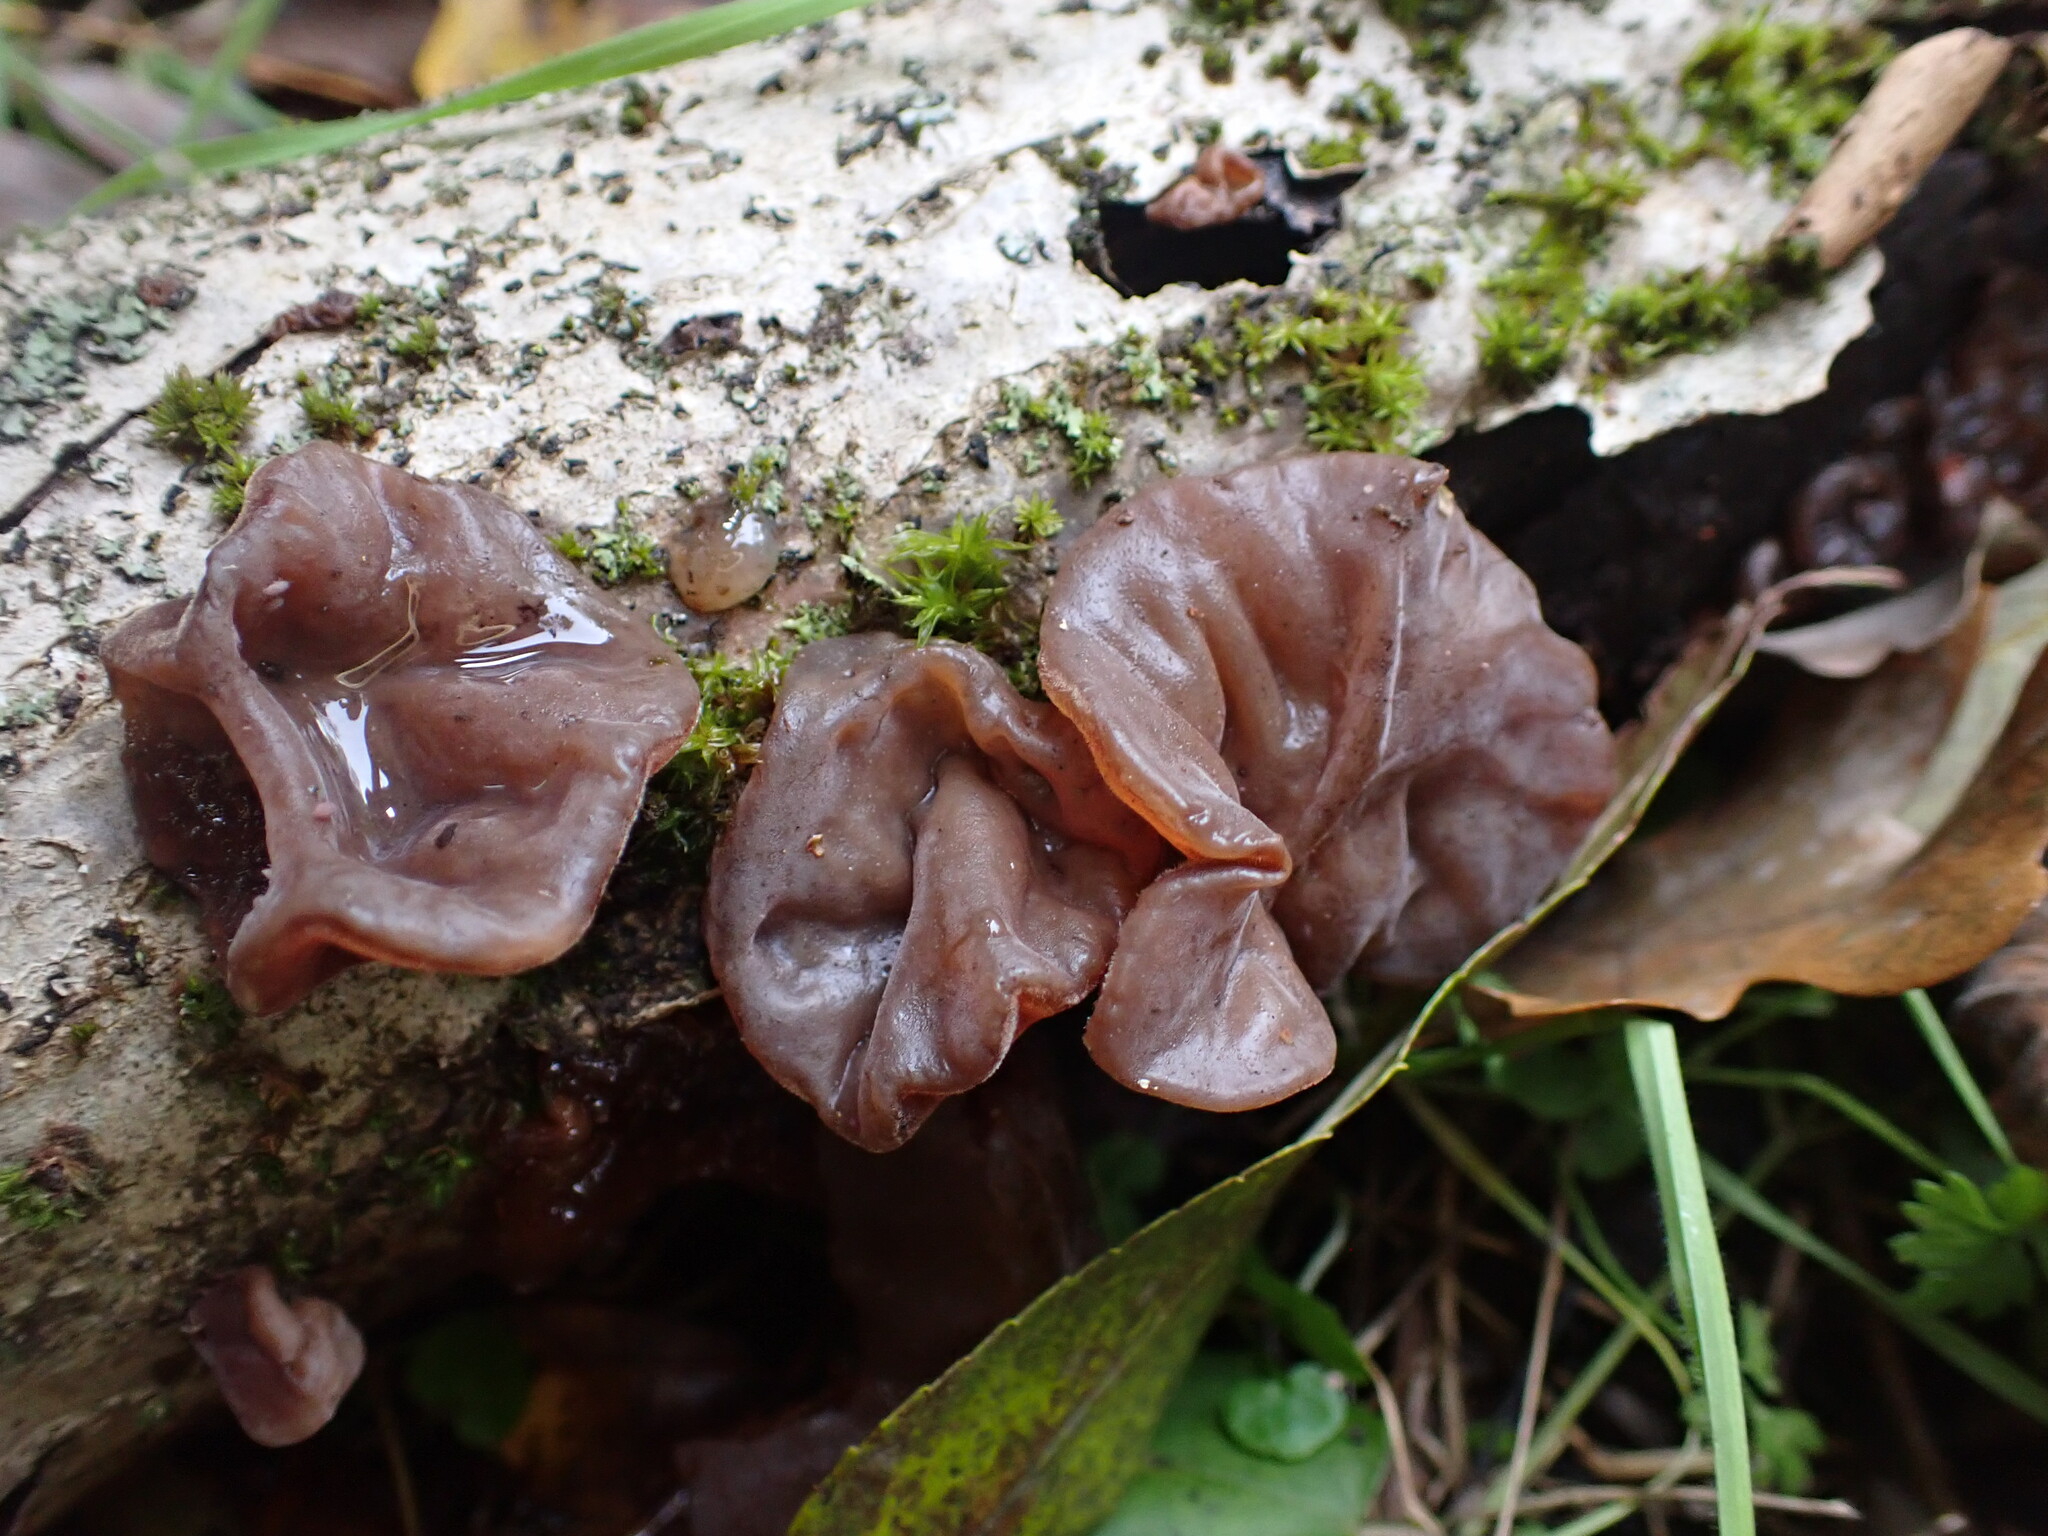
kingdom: Fungi
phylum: Basidiomycota
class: Agaricomycetes
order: Auriculariales
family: Auriculariaceae
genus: Auricularia
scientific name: Auricularia auricula-judae
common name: Jelly ear
